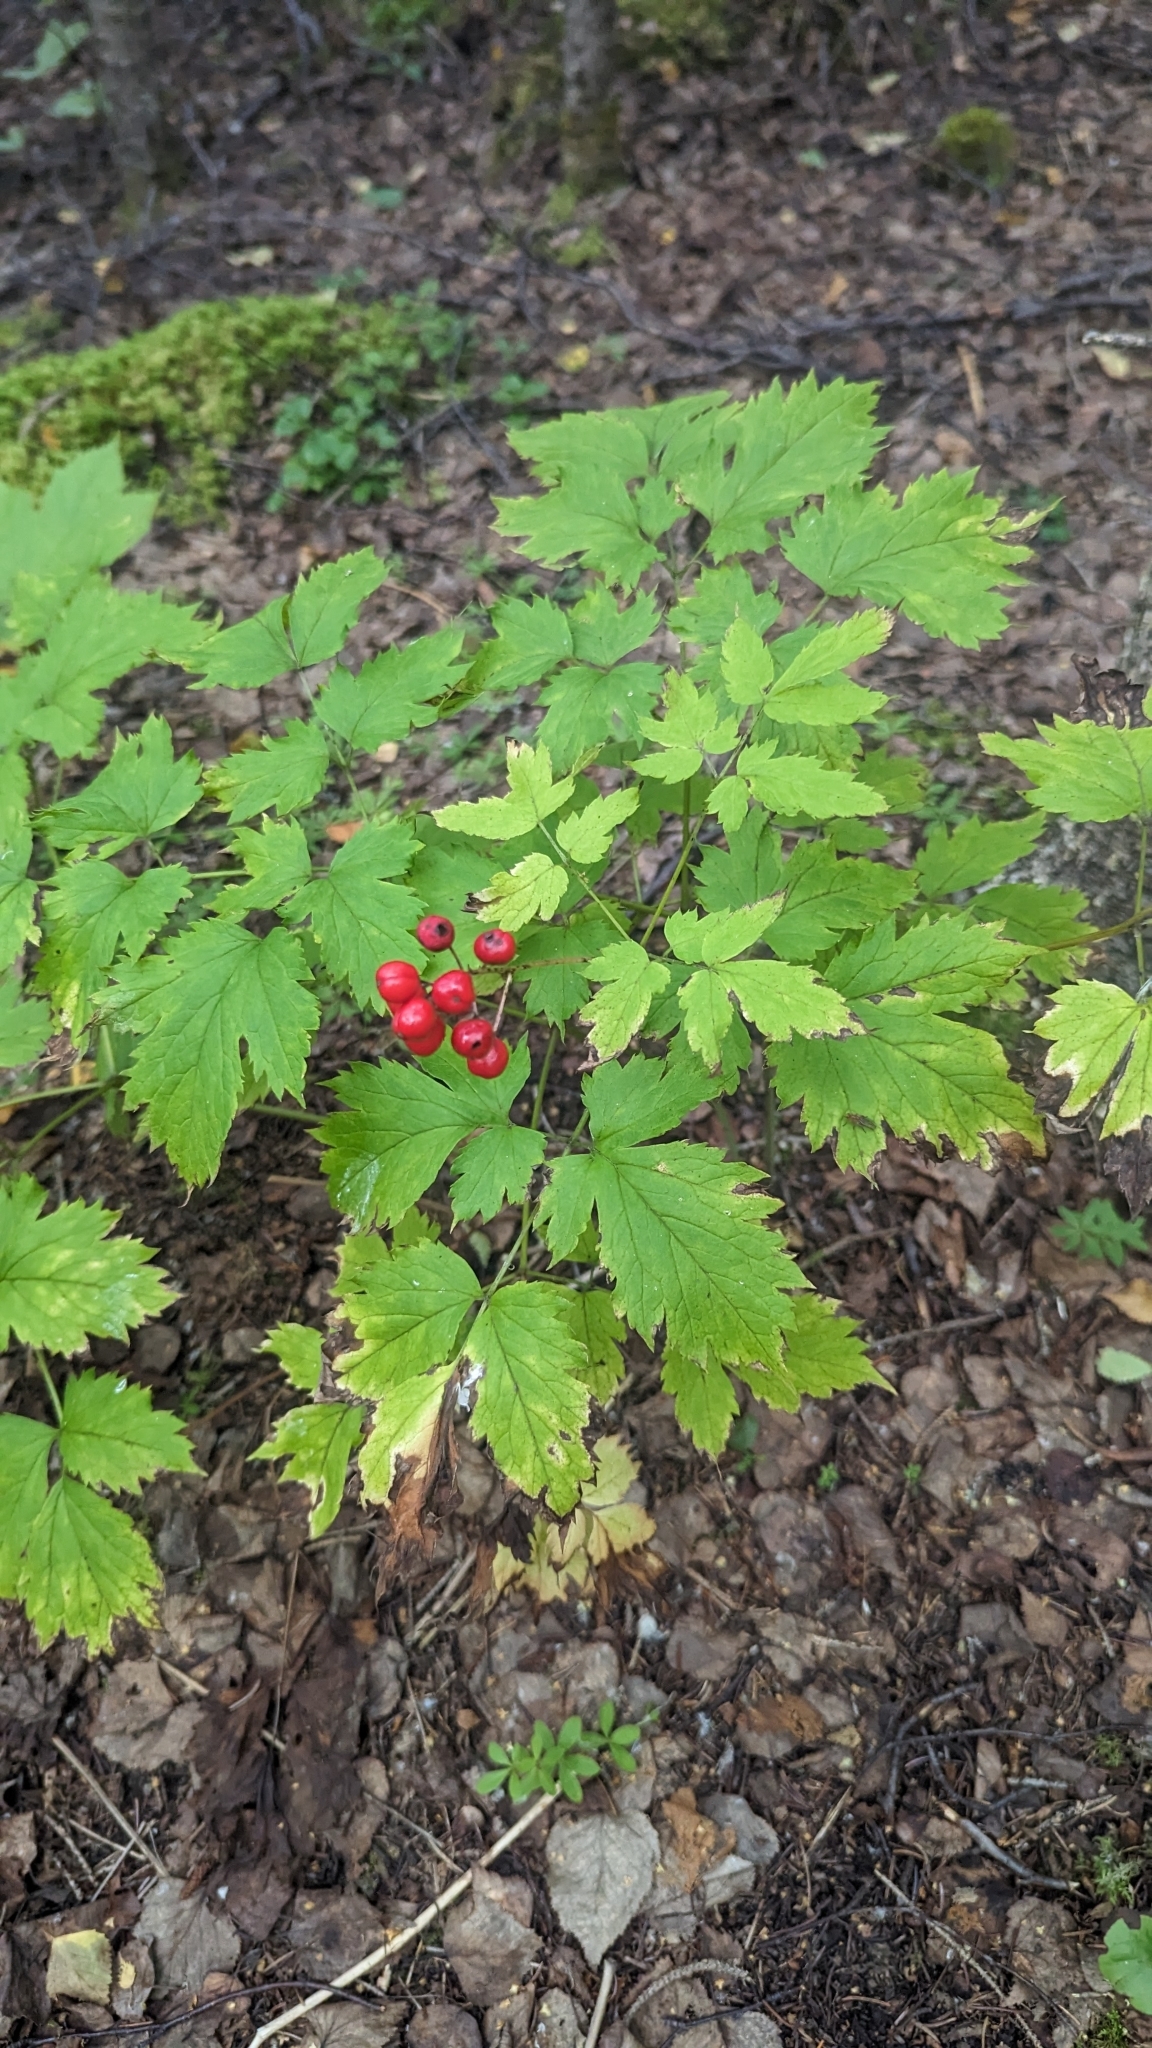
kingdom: Plantae
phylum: Tracheophyta
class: Magnoliopsida
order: Ranunculales
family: Ranunculaceae
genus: Actaea
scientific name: Actaea rubra
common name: Red baneberry
